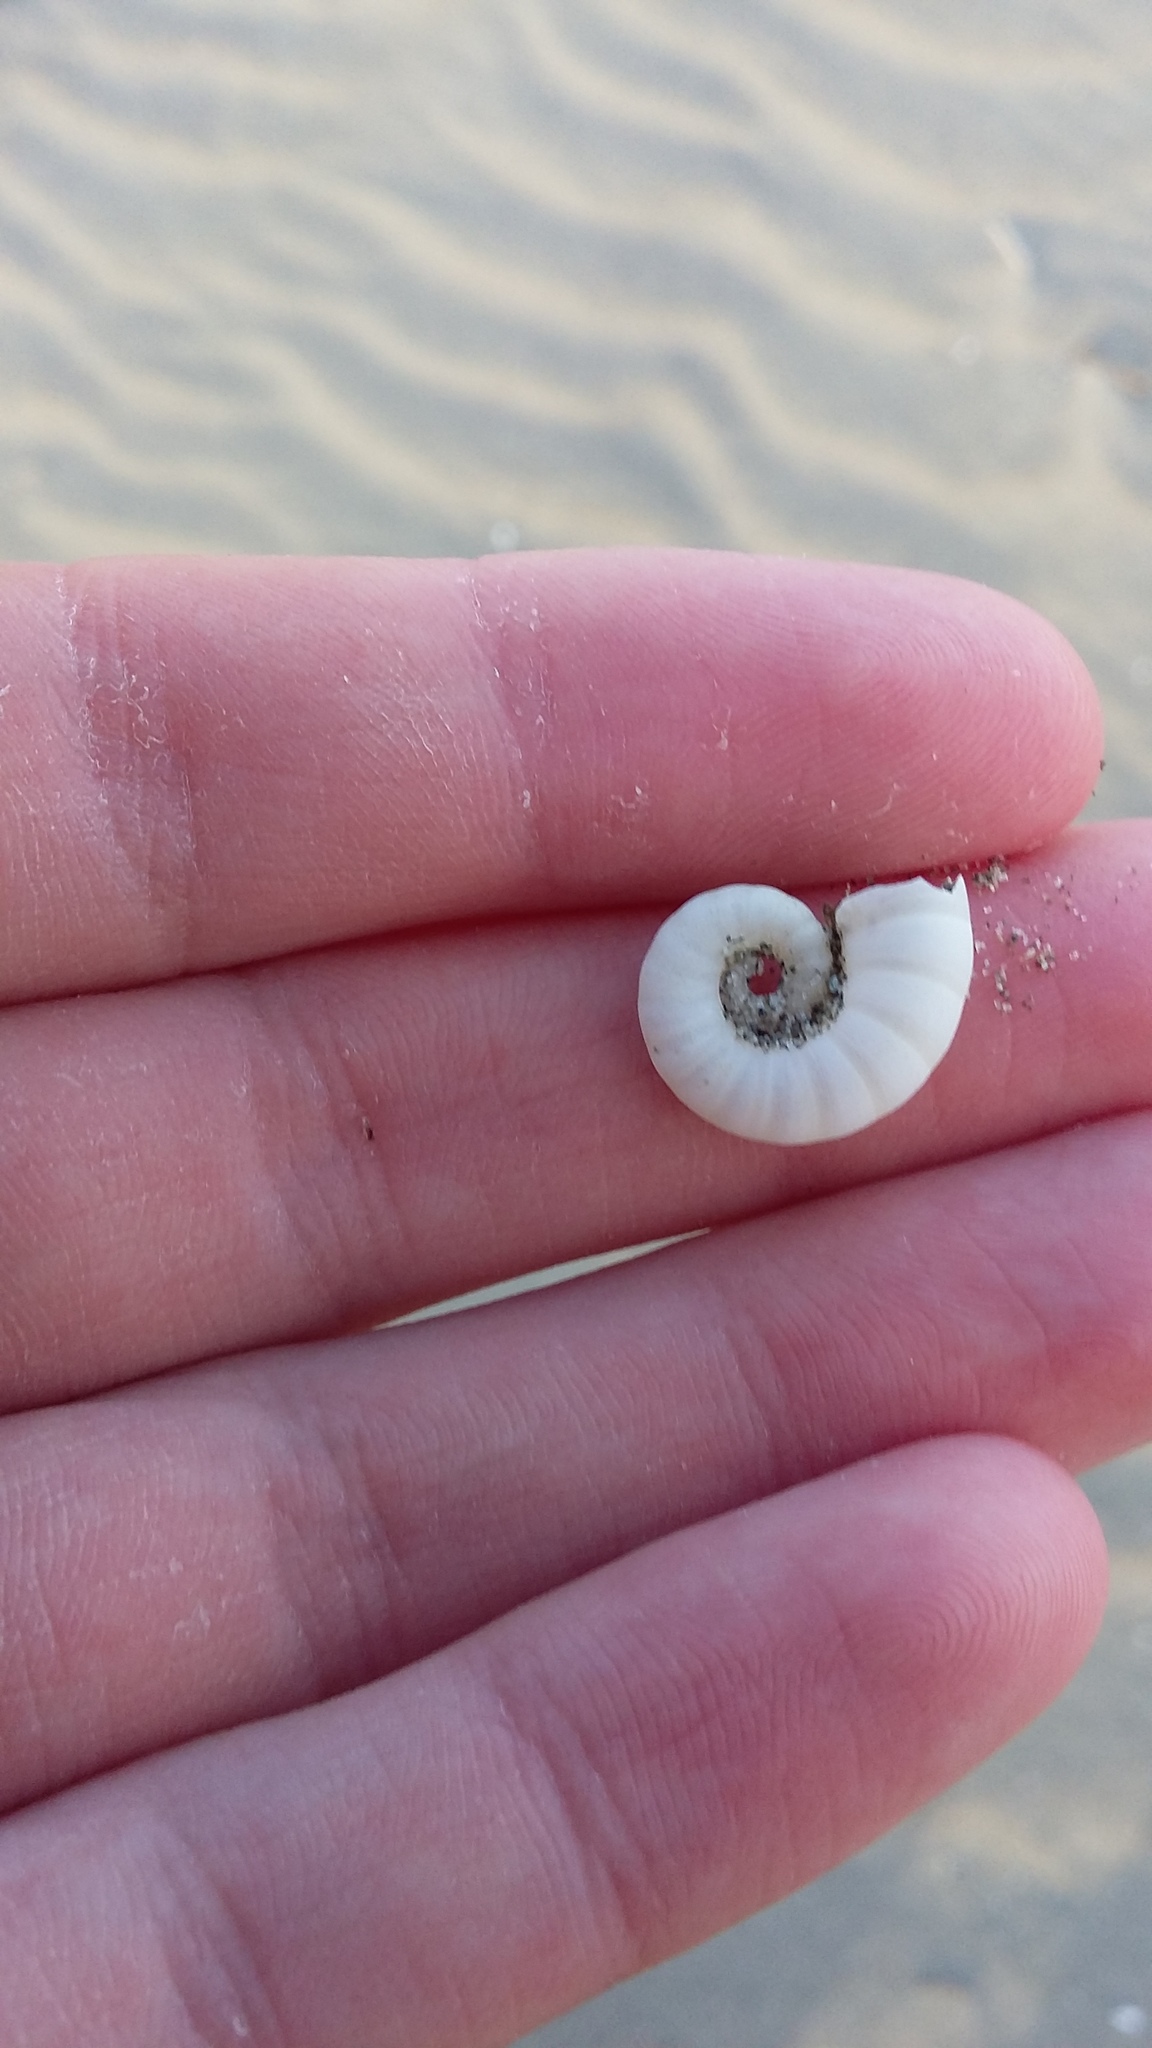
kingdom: Animalia
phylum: Mollusca
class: Cephalopoda
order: Spirulida
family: Spirulidae
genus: Spirula
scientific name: Spirula spirula
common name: Ram's horn squid
